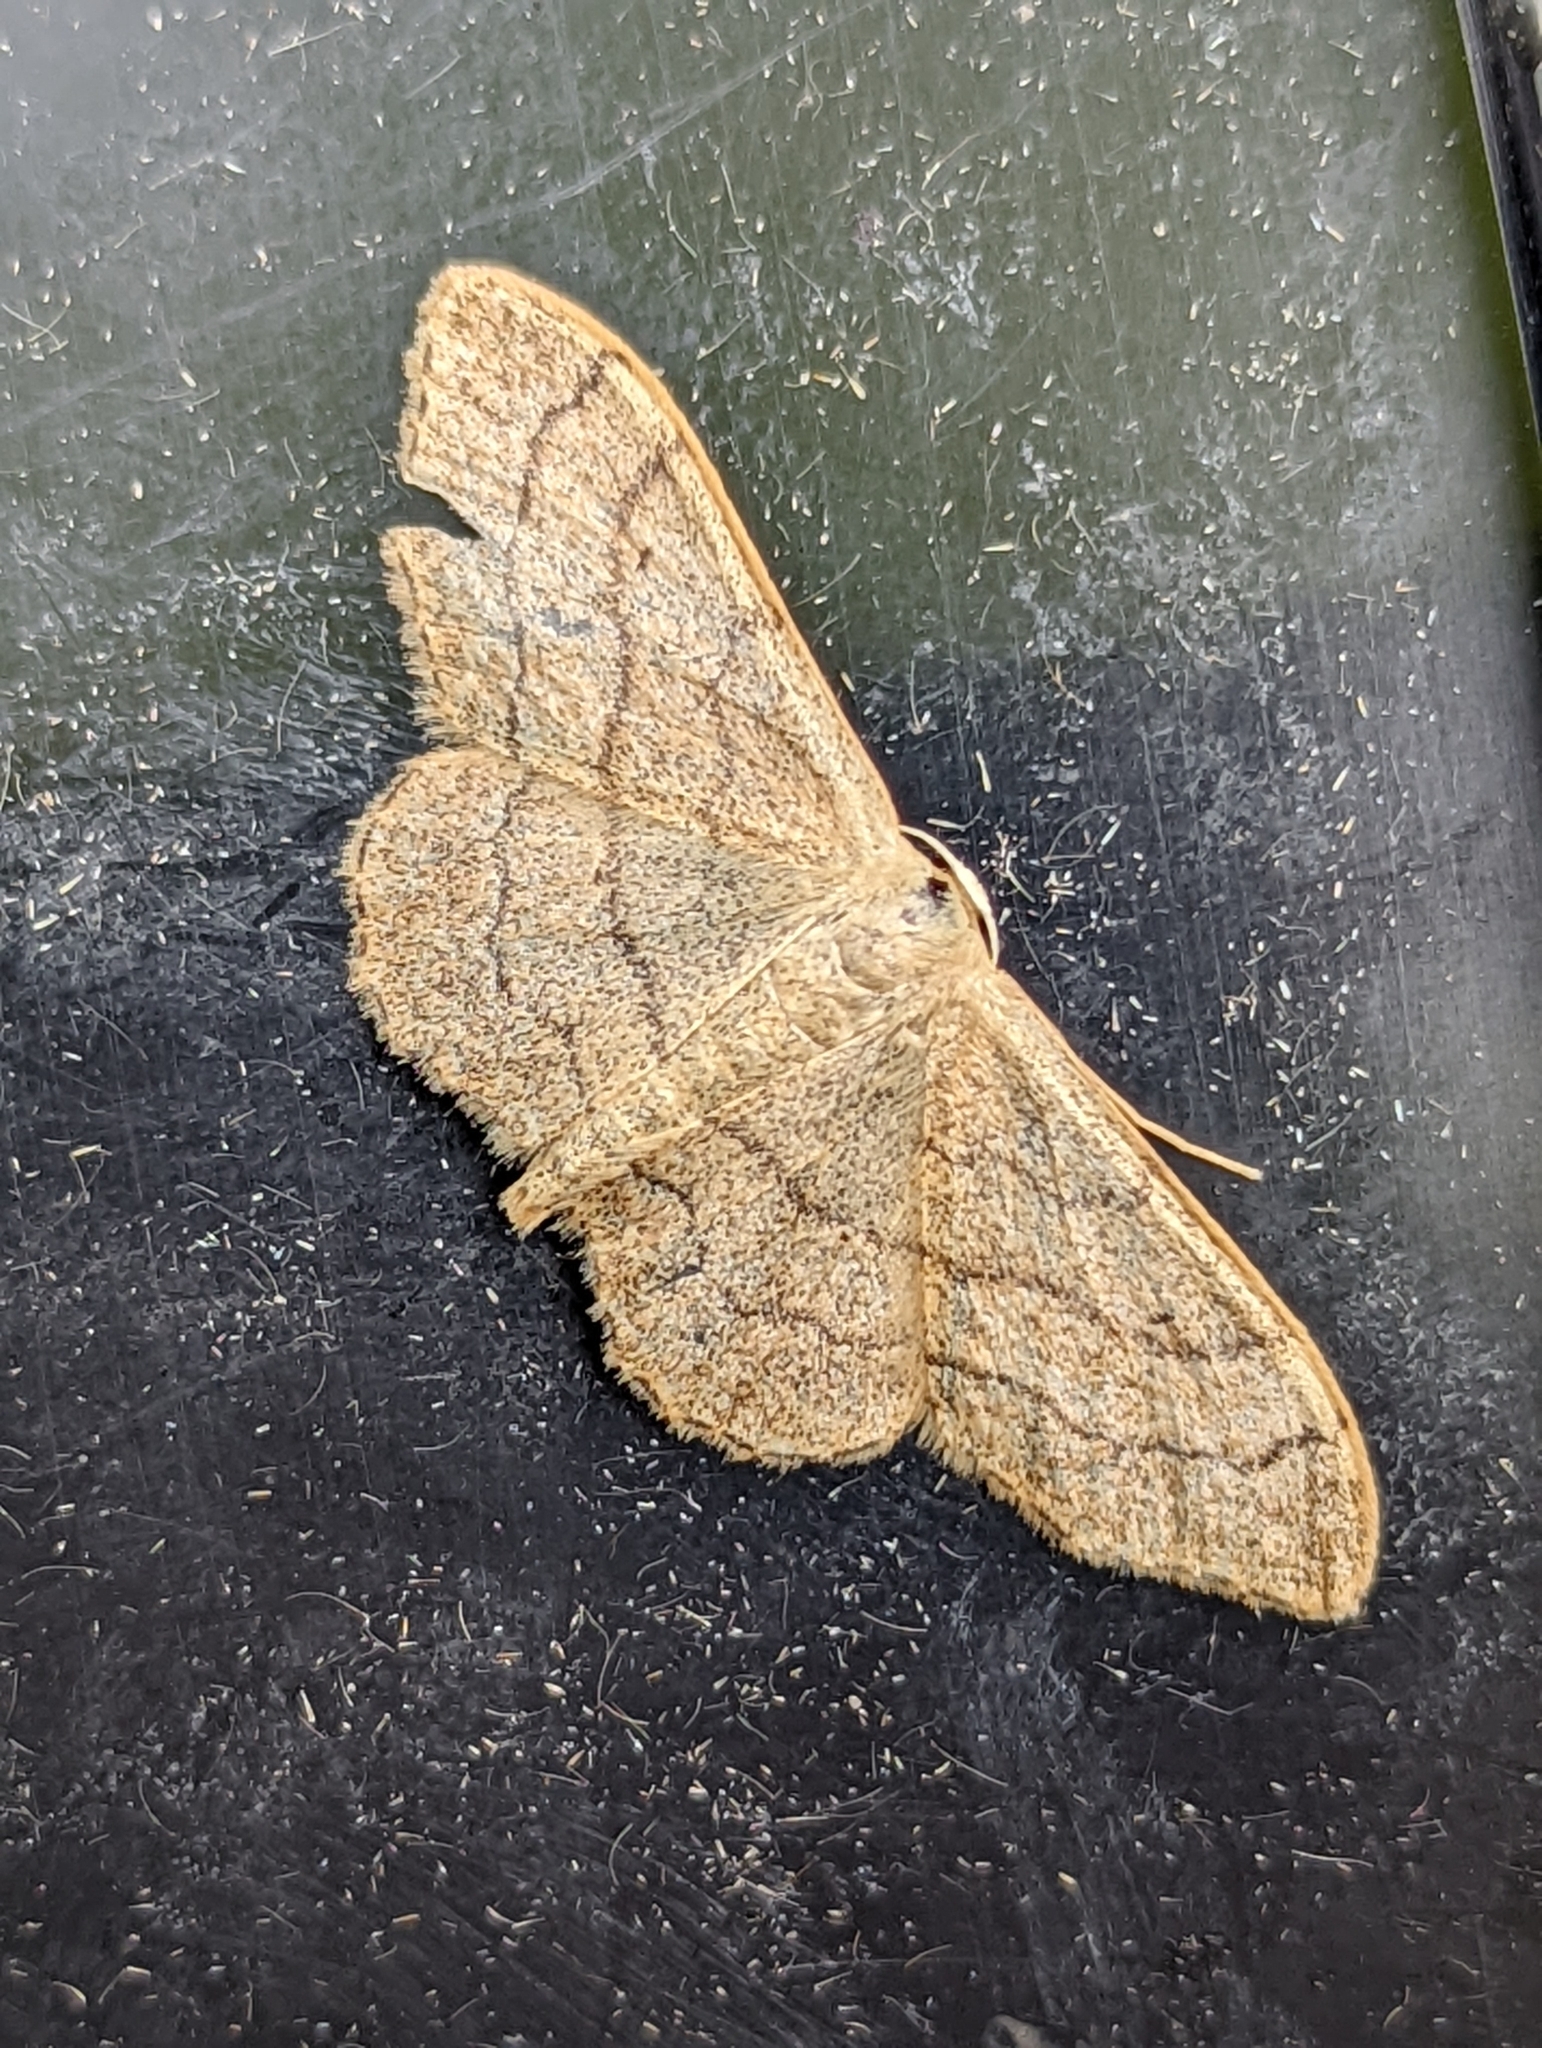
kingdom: Animalia
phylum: Arthropoda
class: Insecta
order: Lepidoptera
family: Geometridae
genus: Idaea
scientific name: Idaea aversata
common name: Riband wave
